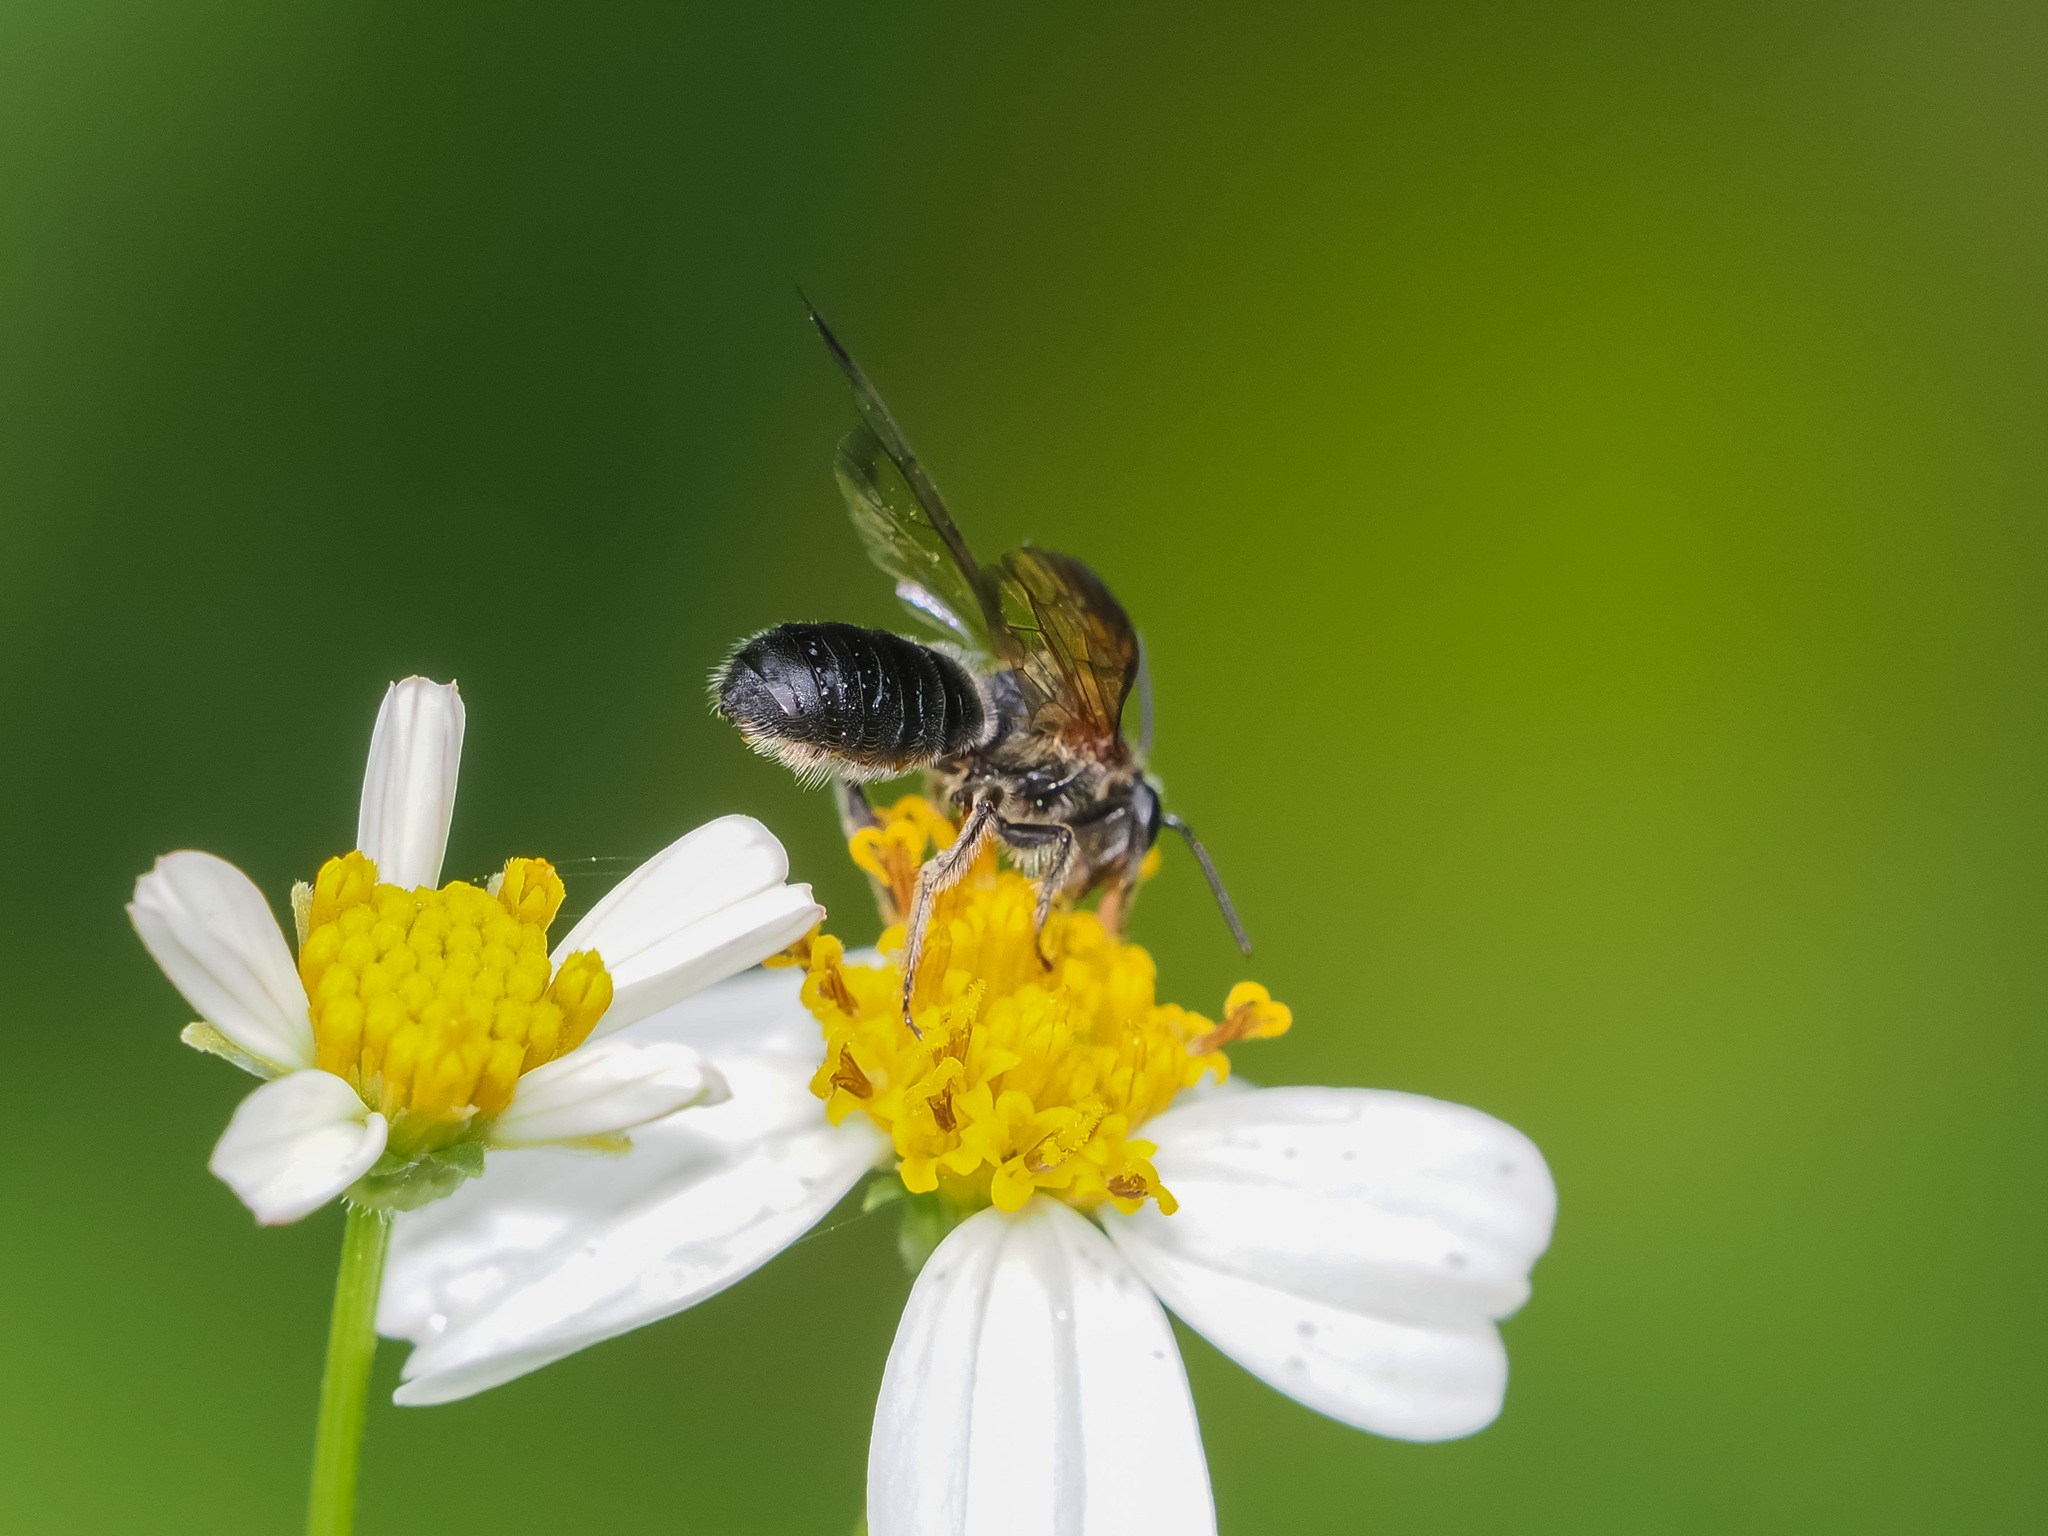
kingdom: Animalia
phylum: Arthropoda
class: Insecta
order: Hymenoptera
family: Halictidae
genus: Nomia
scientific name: Nomia fuscipennis
